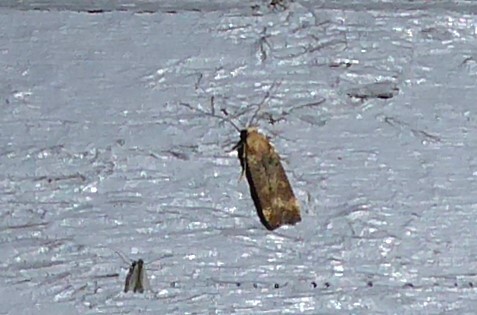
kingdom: Animalia
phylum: Arthropoda
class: Insecta
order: Lepidoptera
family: Gelechiidae
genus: Anisoplaca
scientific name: Anisoplaca acrodactyla
